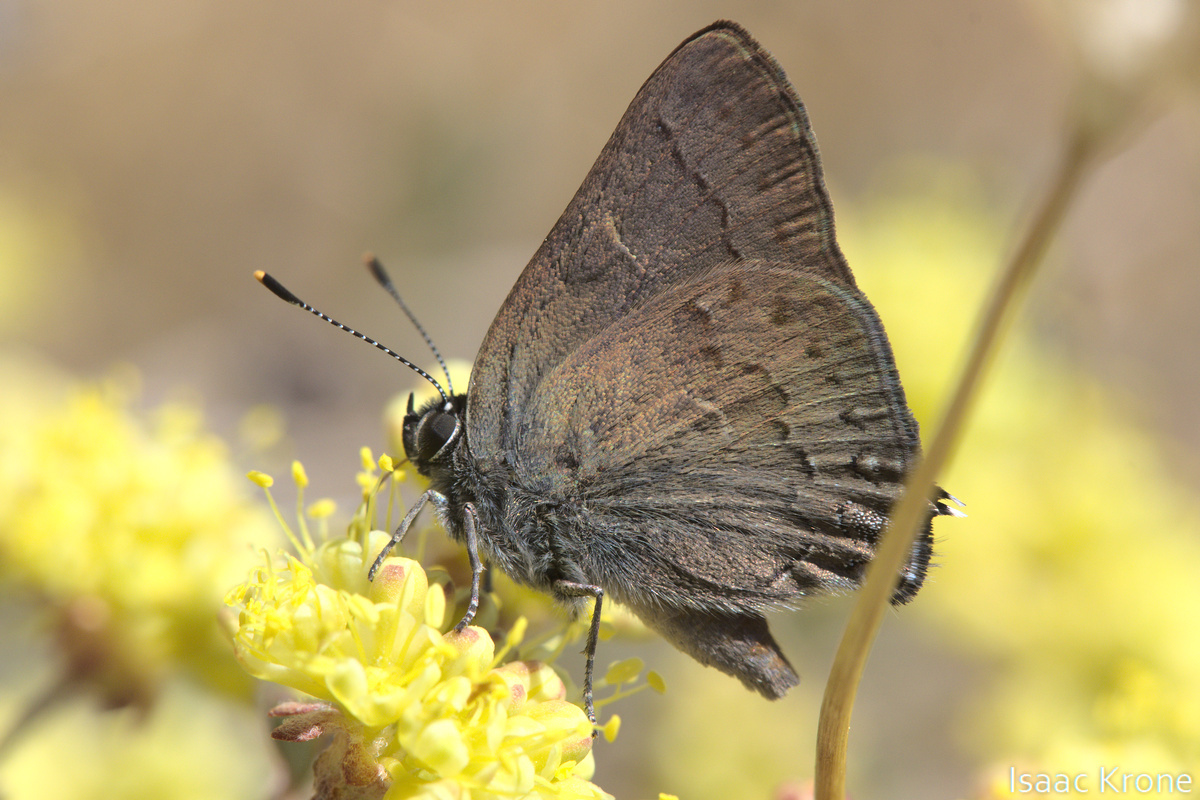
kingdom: Animalia
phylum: Arthropoda
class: Insecta
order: Lepidoptera
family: Lycaenidae
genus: Strymon
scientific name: Strymon saepium
